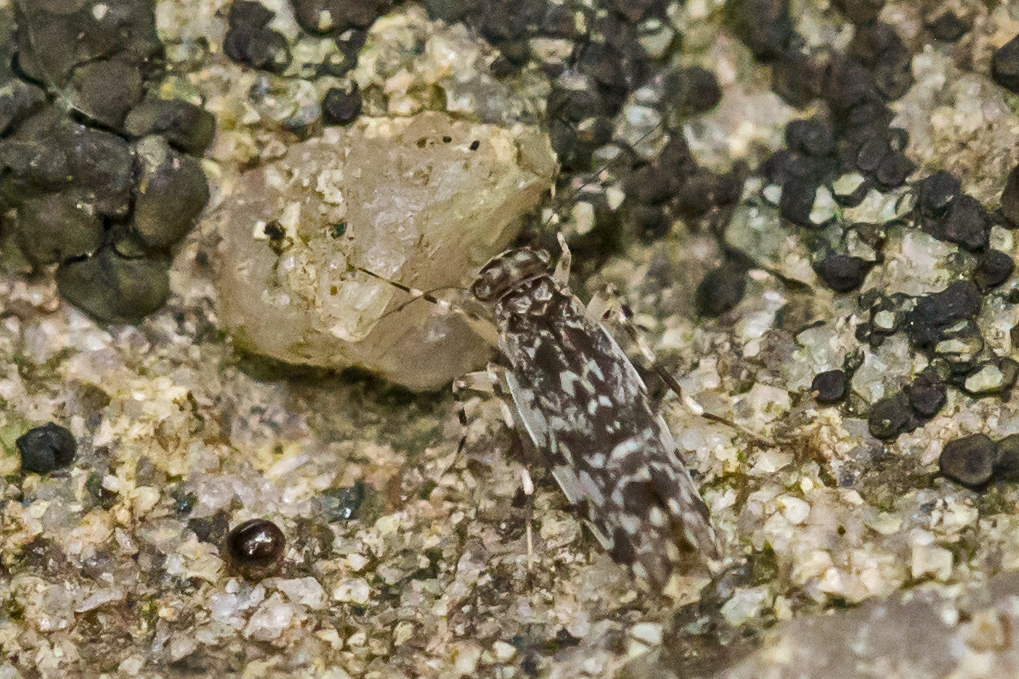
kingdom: Animalia
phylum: Arthropoda
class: Insecta
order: Psocodea
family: Amphientomidae
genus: Stimulopalpus
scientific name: Stimulopalpus japonicus
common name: Tropical bark louse
